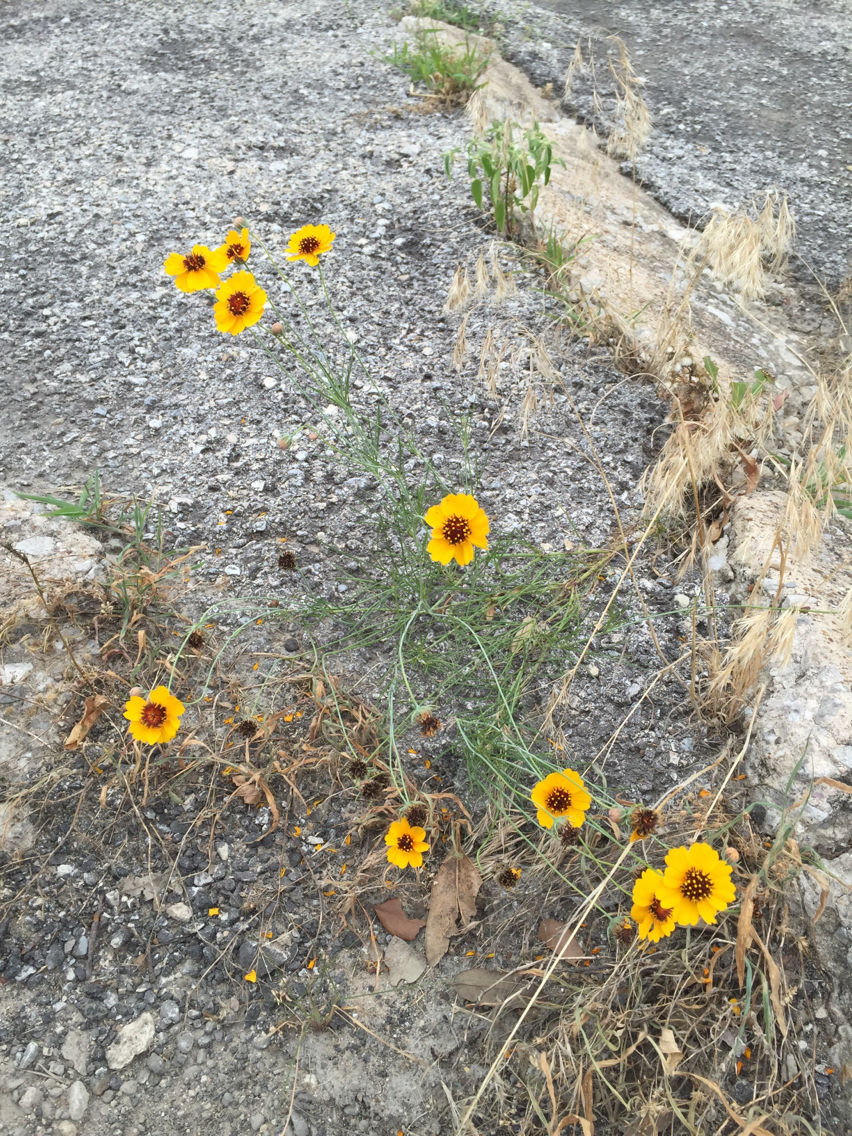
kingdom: Plantae
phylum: Tracheophyta
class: Magnoliopsida
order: Asterales
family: Asteraceae
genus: Thelesperma
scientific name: Thelesperma filifolium
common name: Stiff greenthread
